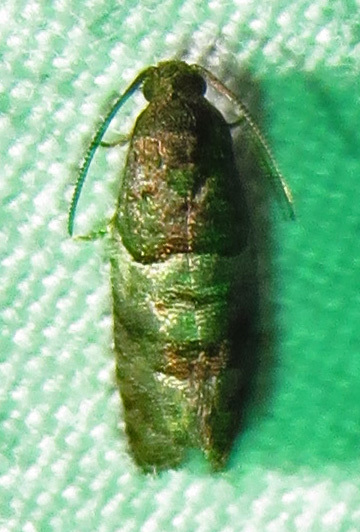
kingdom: Animalia
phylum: Arthropoda
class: Insecta
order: Lepidoptera
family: Tortricidae
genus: Larisa
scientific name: Larisa subsolana
